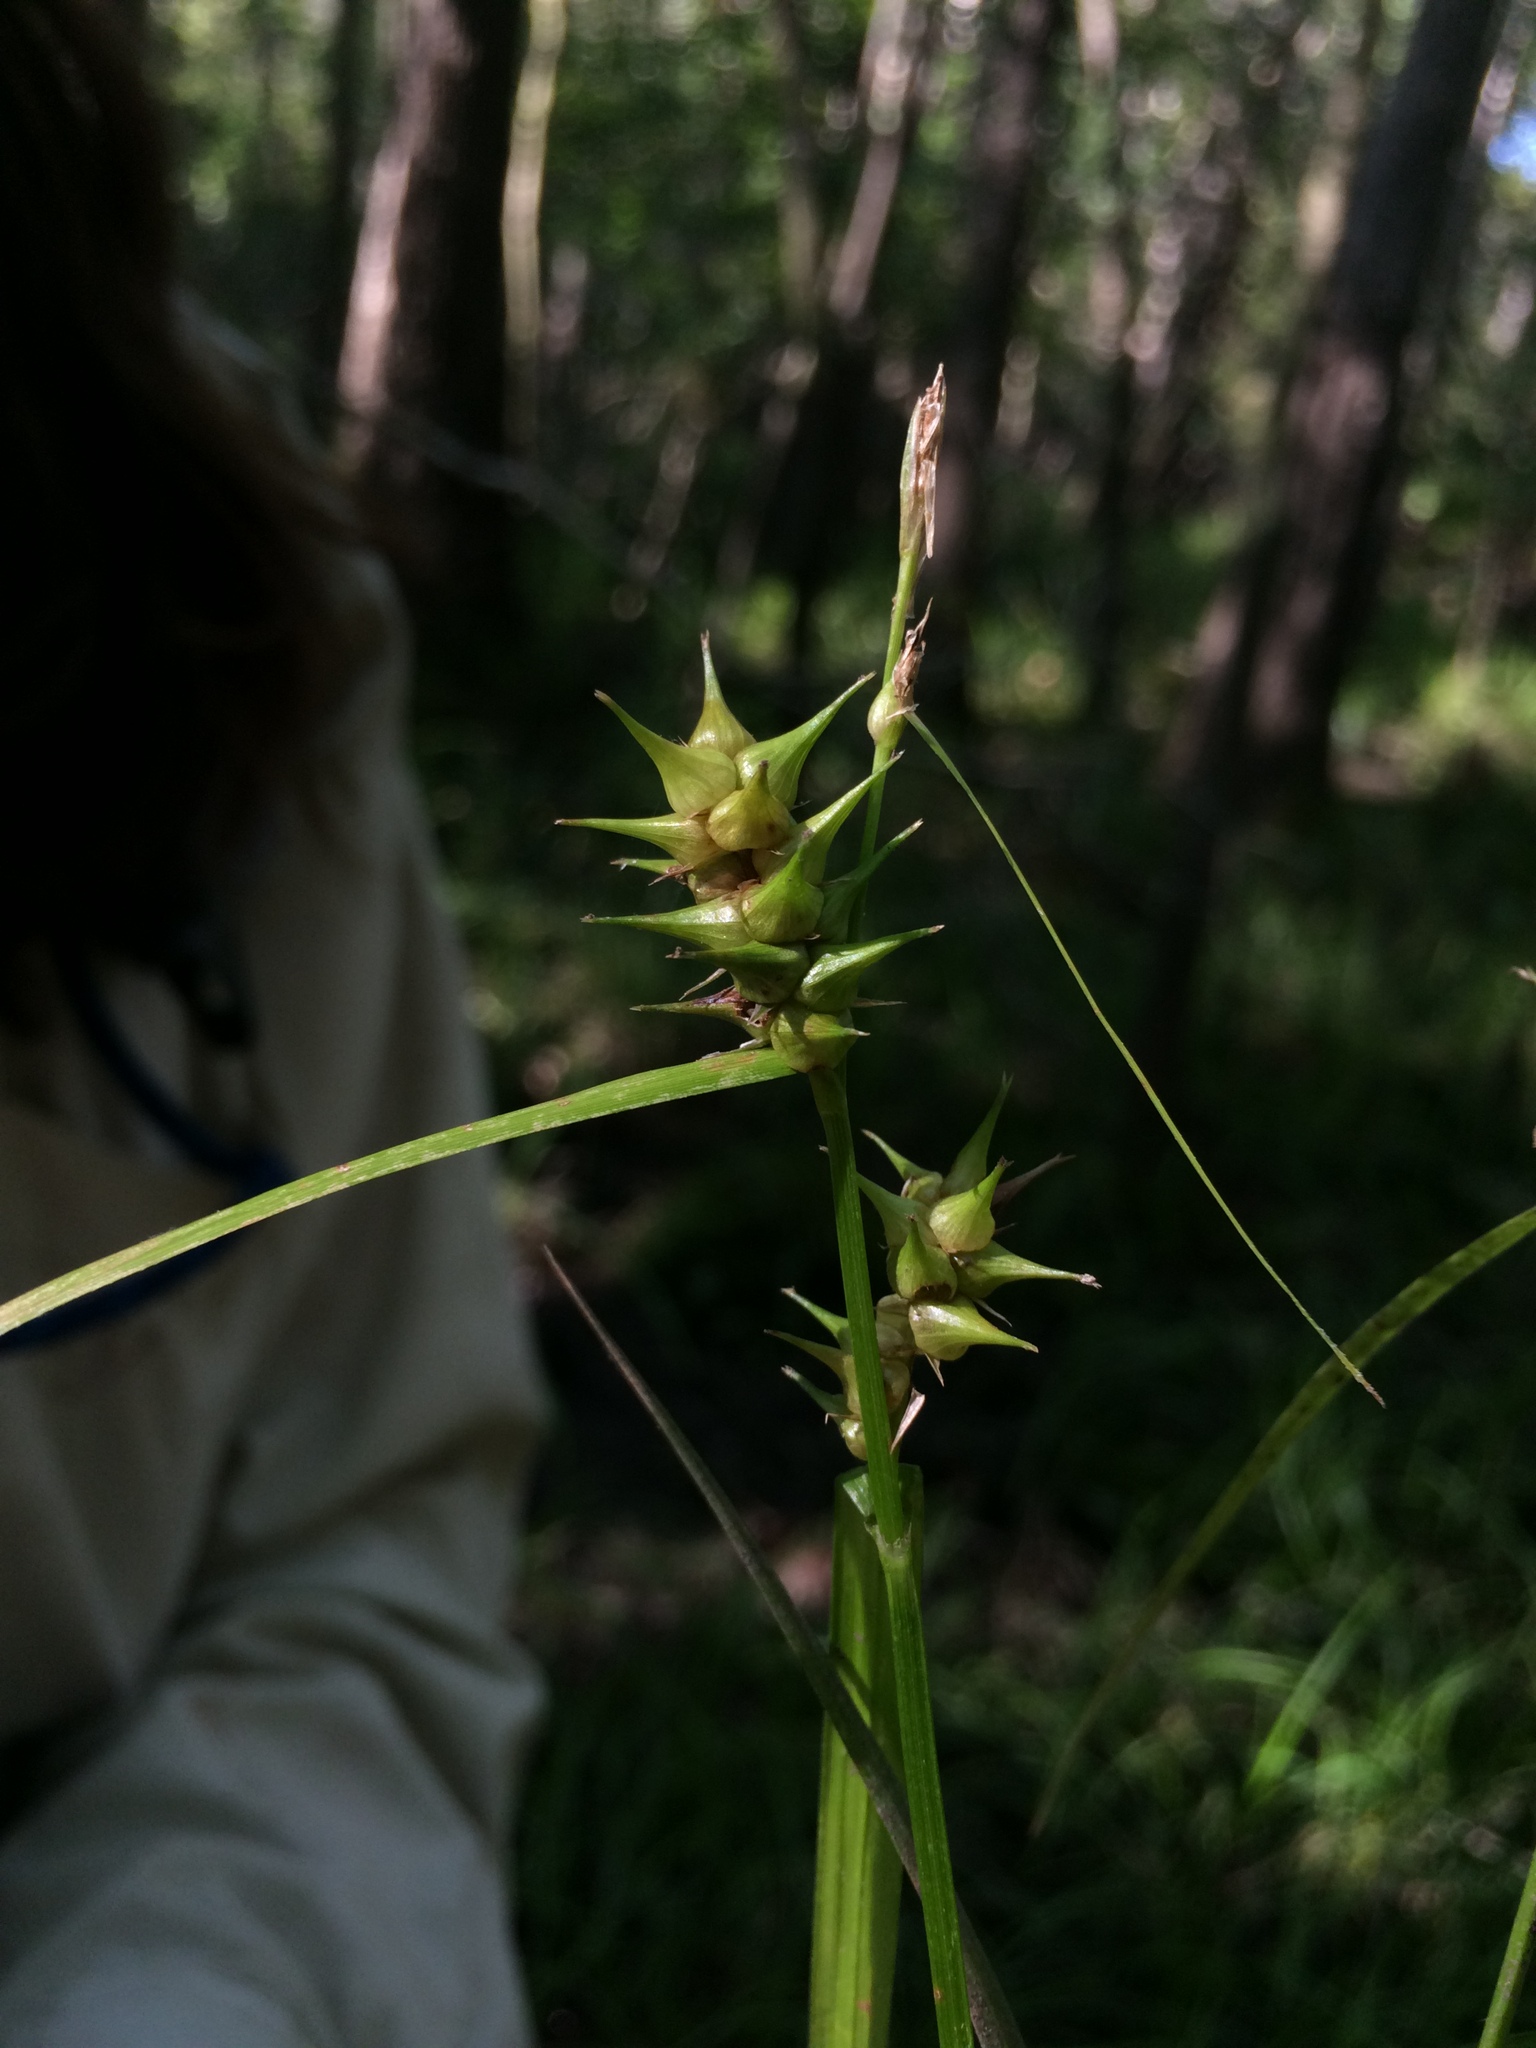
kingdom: Plantae
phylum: Tracheophyta
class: Liliopsida
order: Poales
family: Cyperaceae
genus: Carex
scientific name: Carex gigantea
